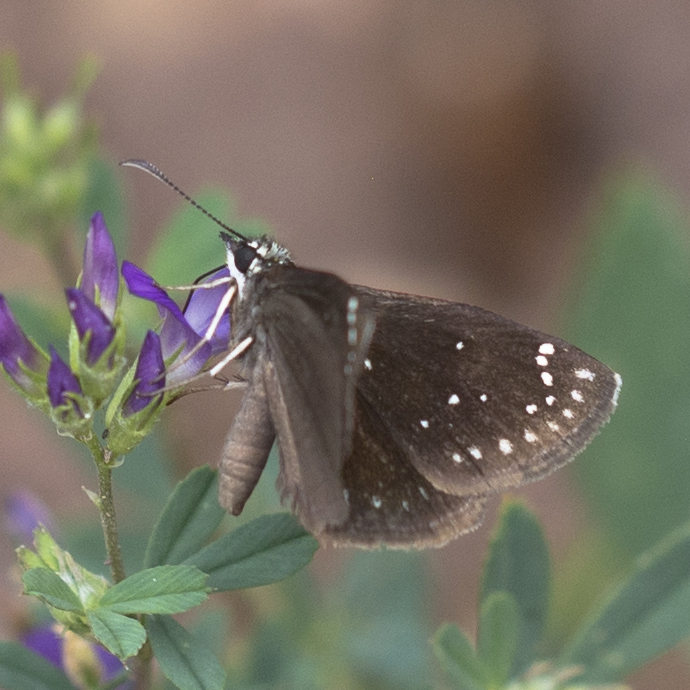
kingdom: Animalia
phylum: Arthropoda
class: Insecta
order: Lepidoptera
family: Hesperiidae
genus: Pholisora
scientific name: Pholisora catullus
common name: Common sootywing
